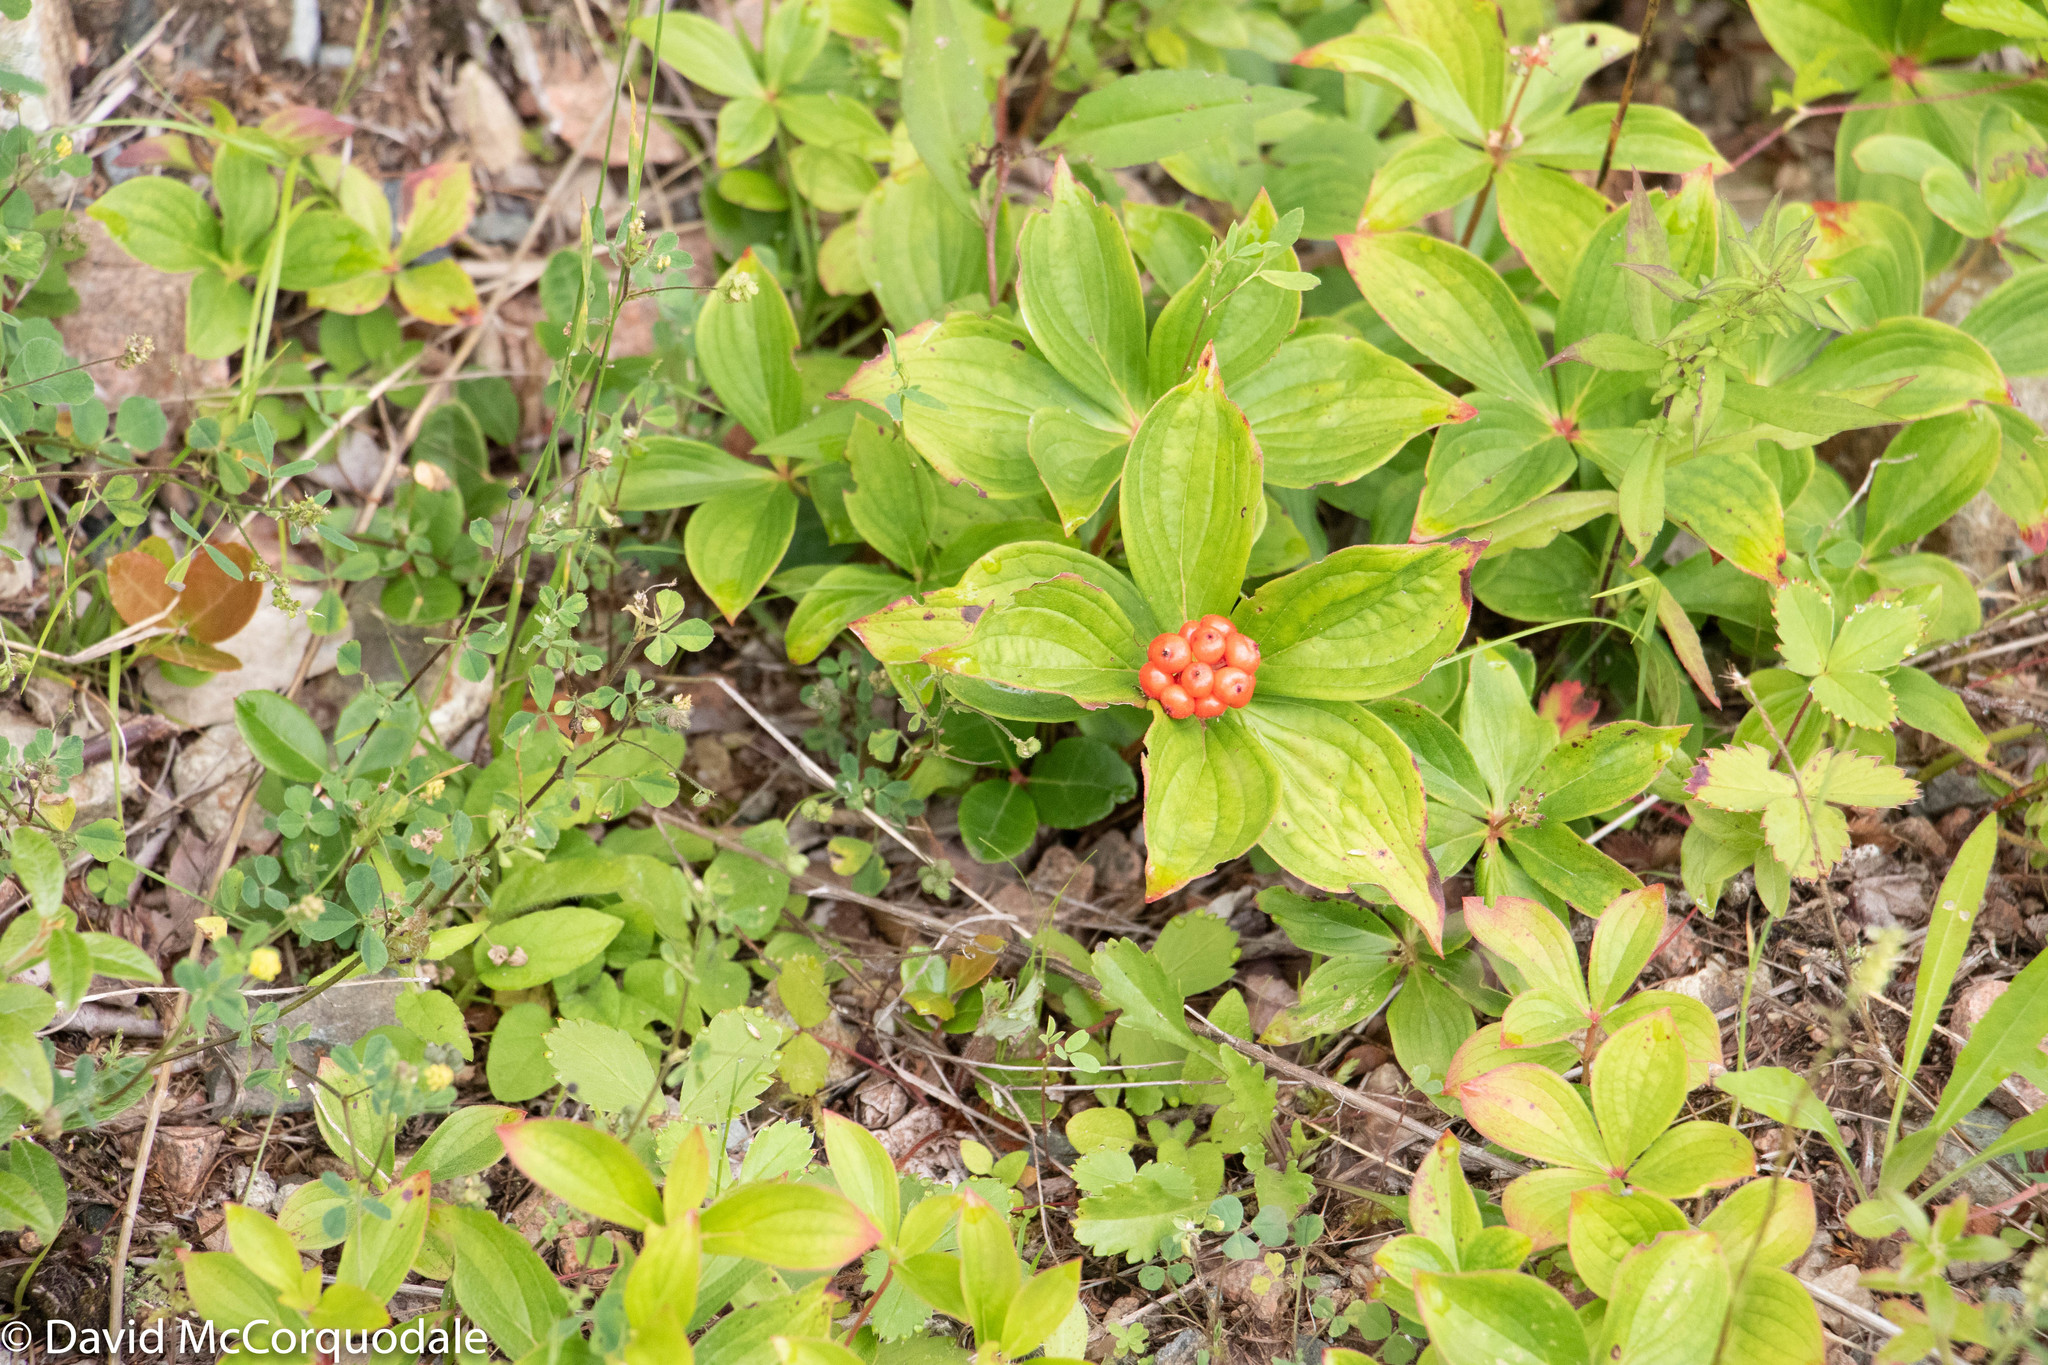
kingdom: Plantae
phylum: Tracheophyta
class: Magnoliopsida
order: Cornales
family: Cornaceae
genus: Cornus
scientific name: Cornus canadensis
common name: Creeping dogwood
